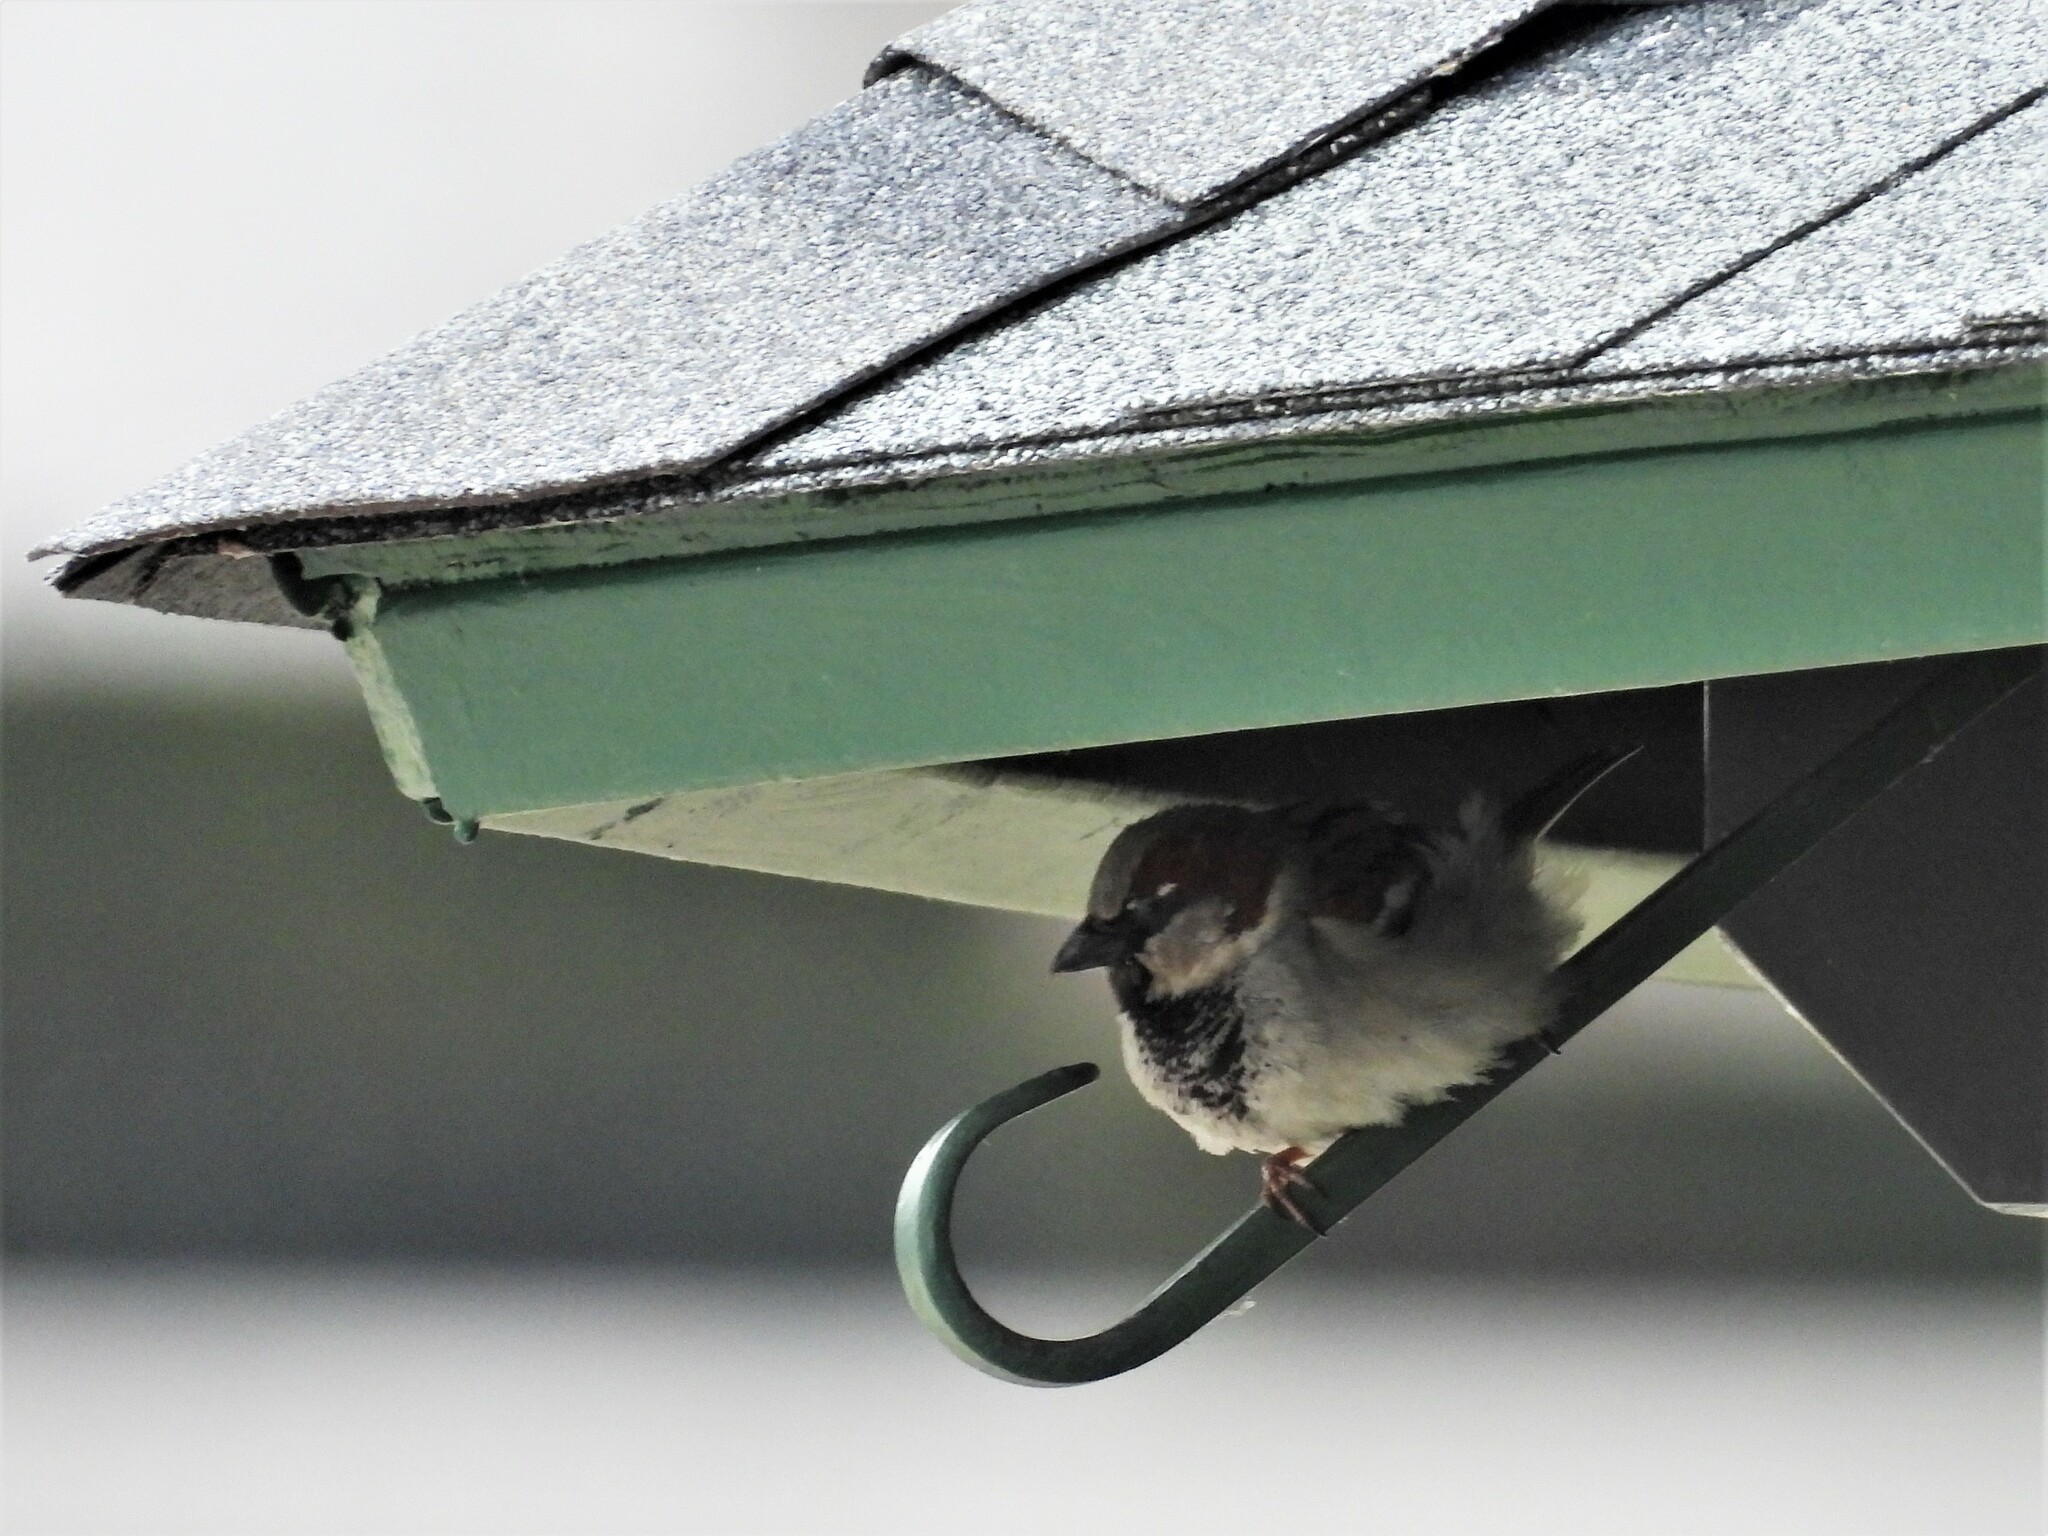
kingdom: Animalia
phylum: Chordata
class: Aves
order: Passeriformes
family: Passeridae
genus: Passer
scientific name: Passer domesticus
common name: House sparrow
